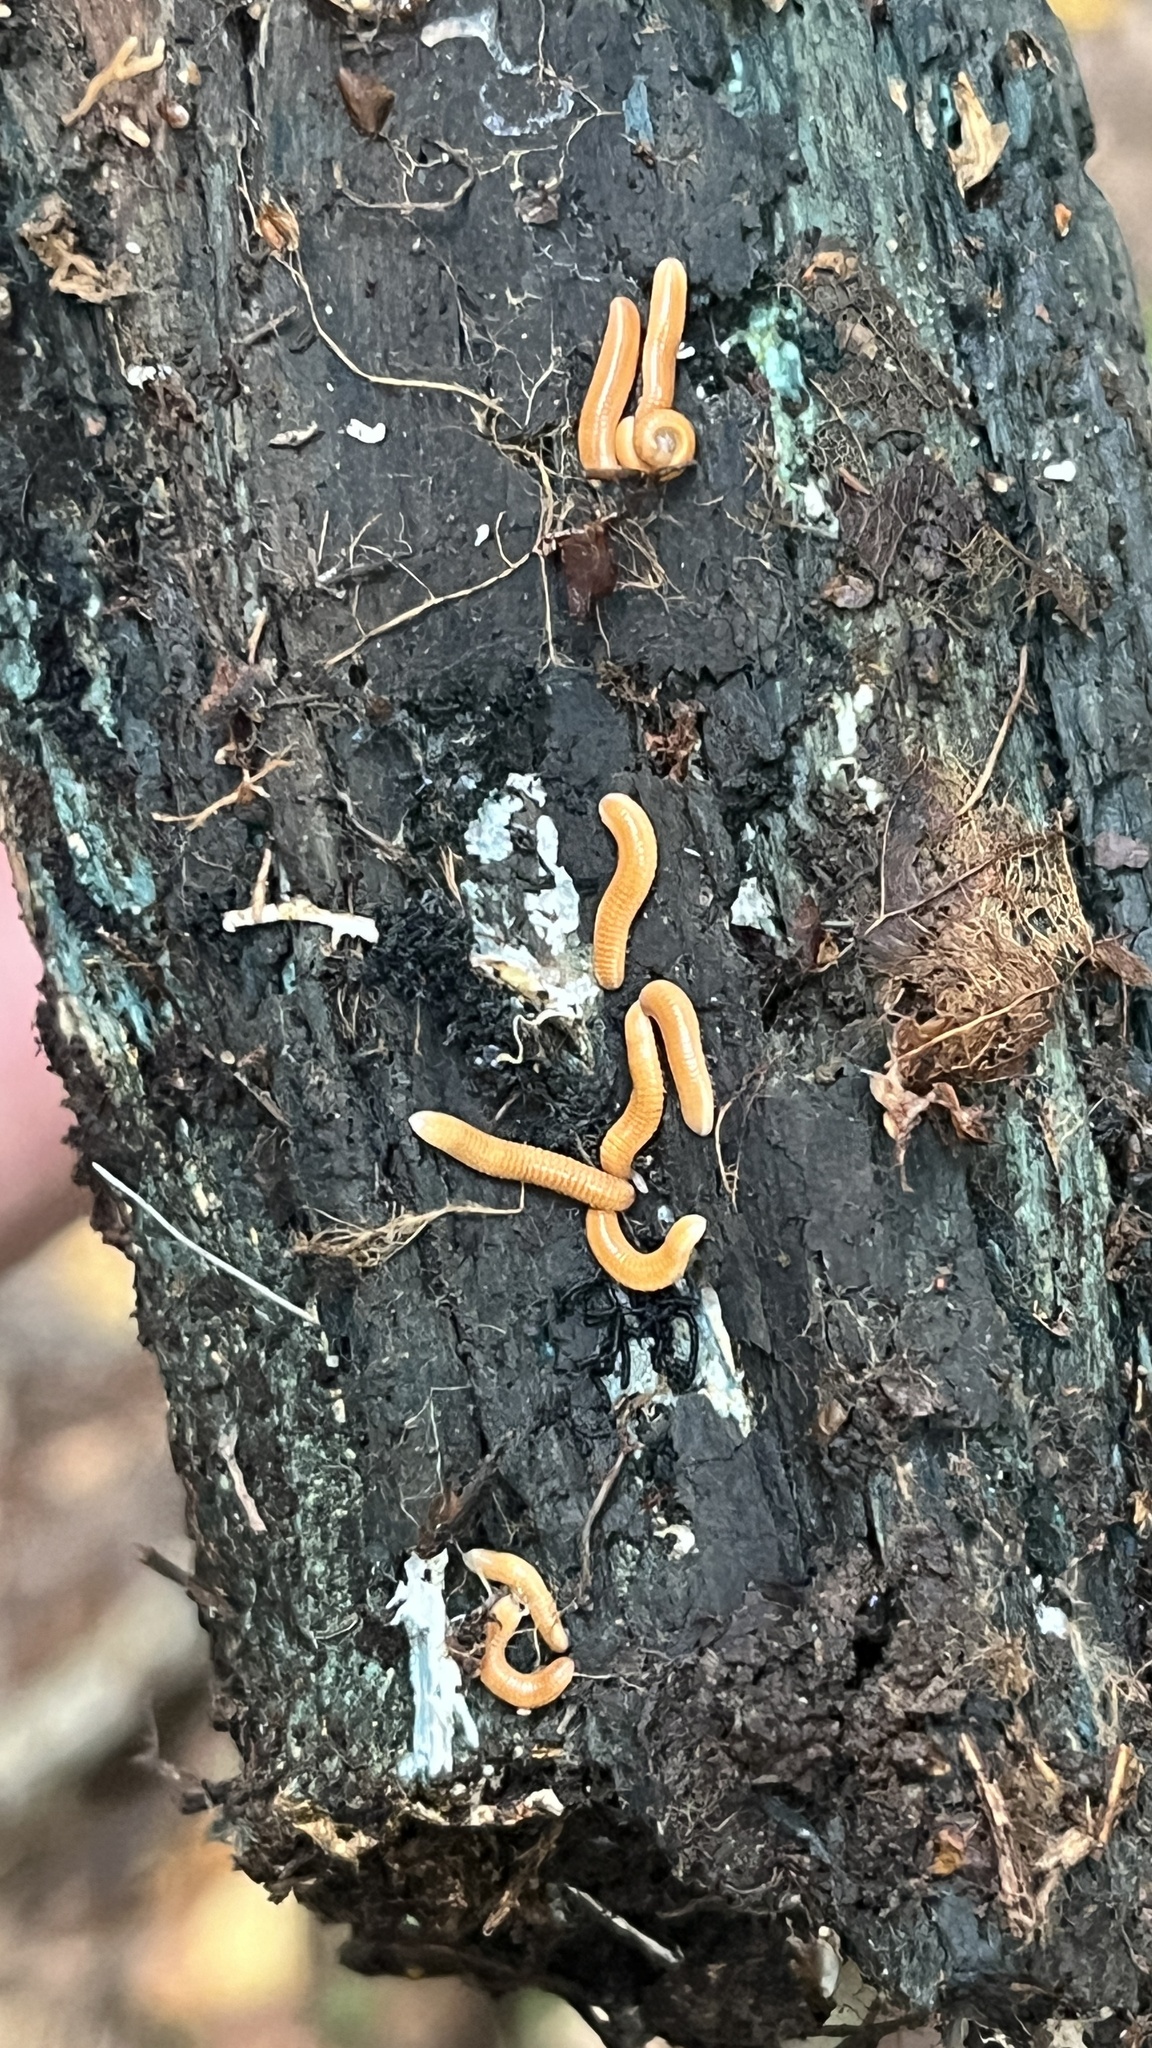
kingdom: Animalia
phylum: Arthropoda
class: Diplopoda
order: Polyzoniida
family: Polyzoniidae
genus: Polyzonium
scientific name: Polyzonium germanicum
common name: Boring millipede
